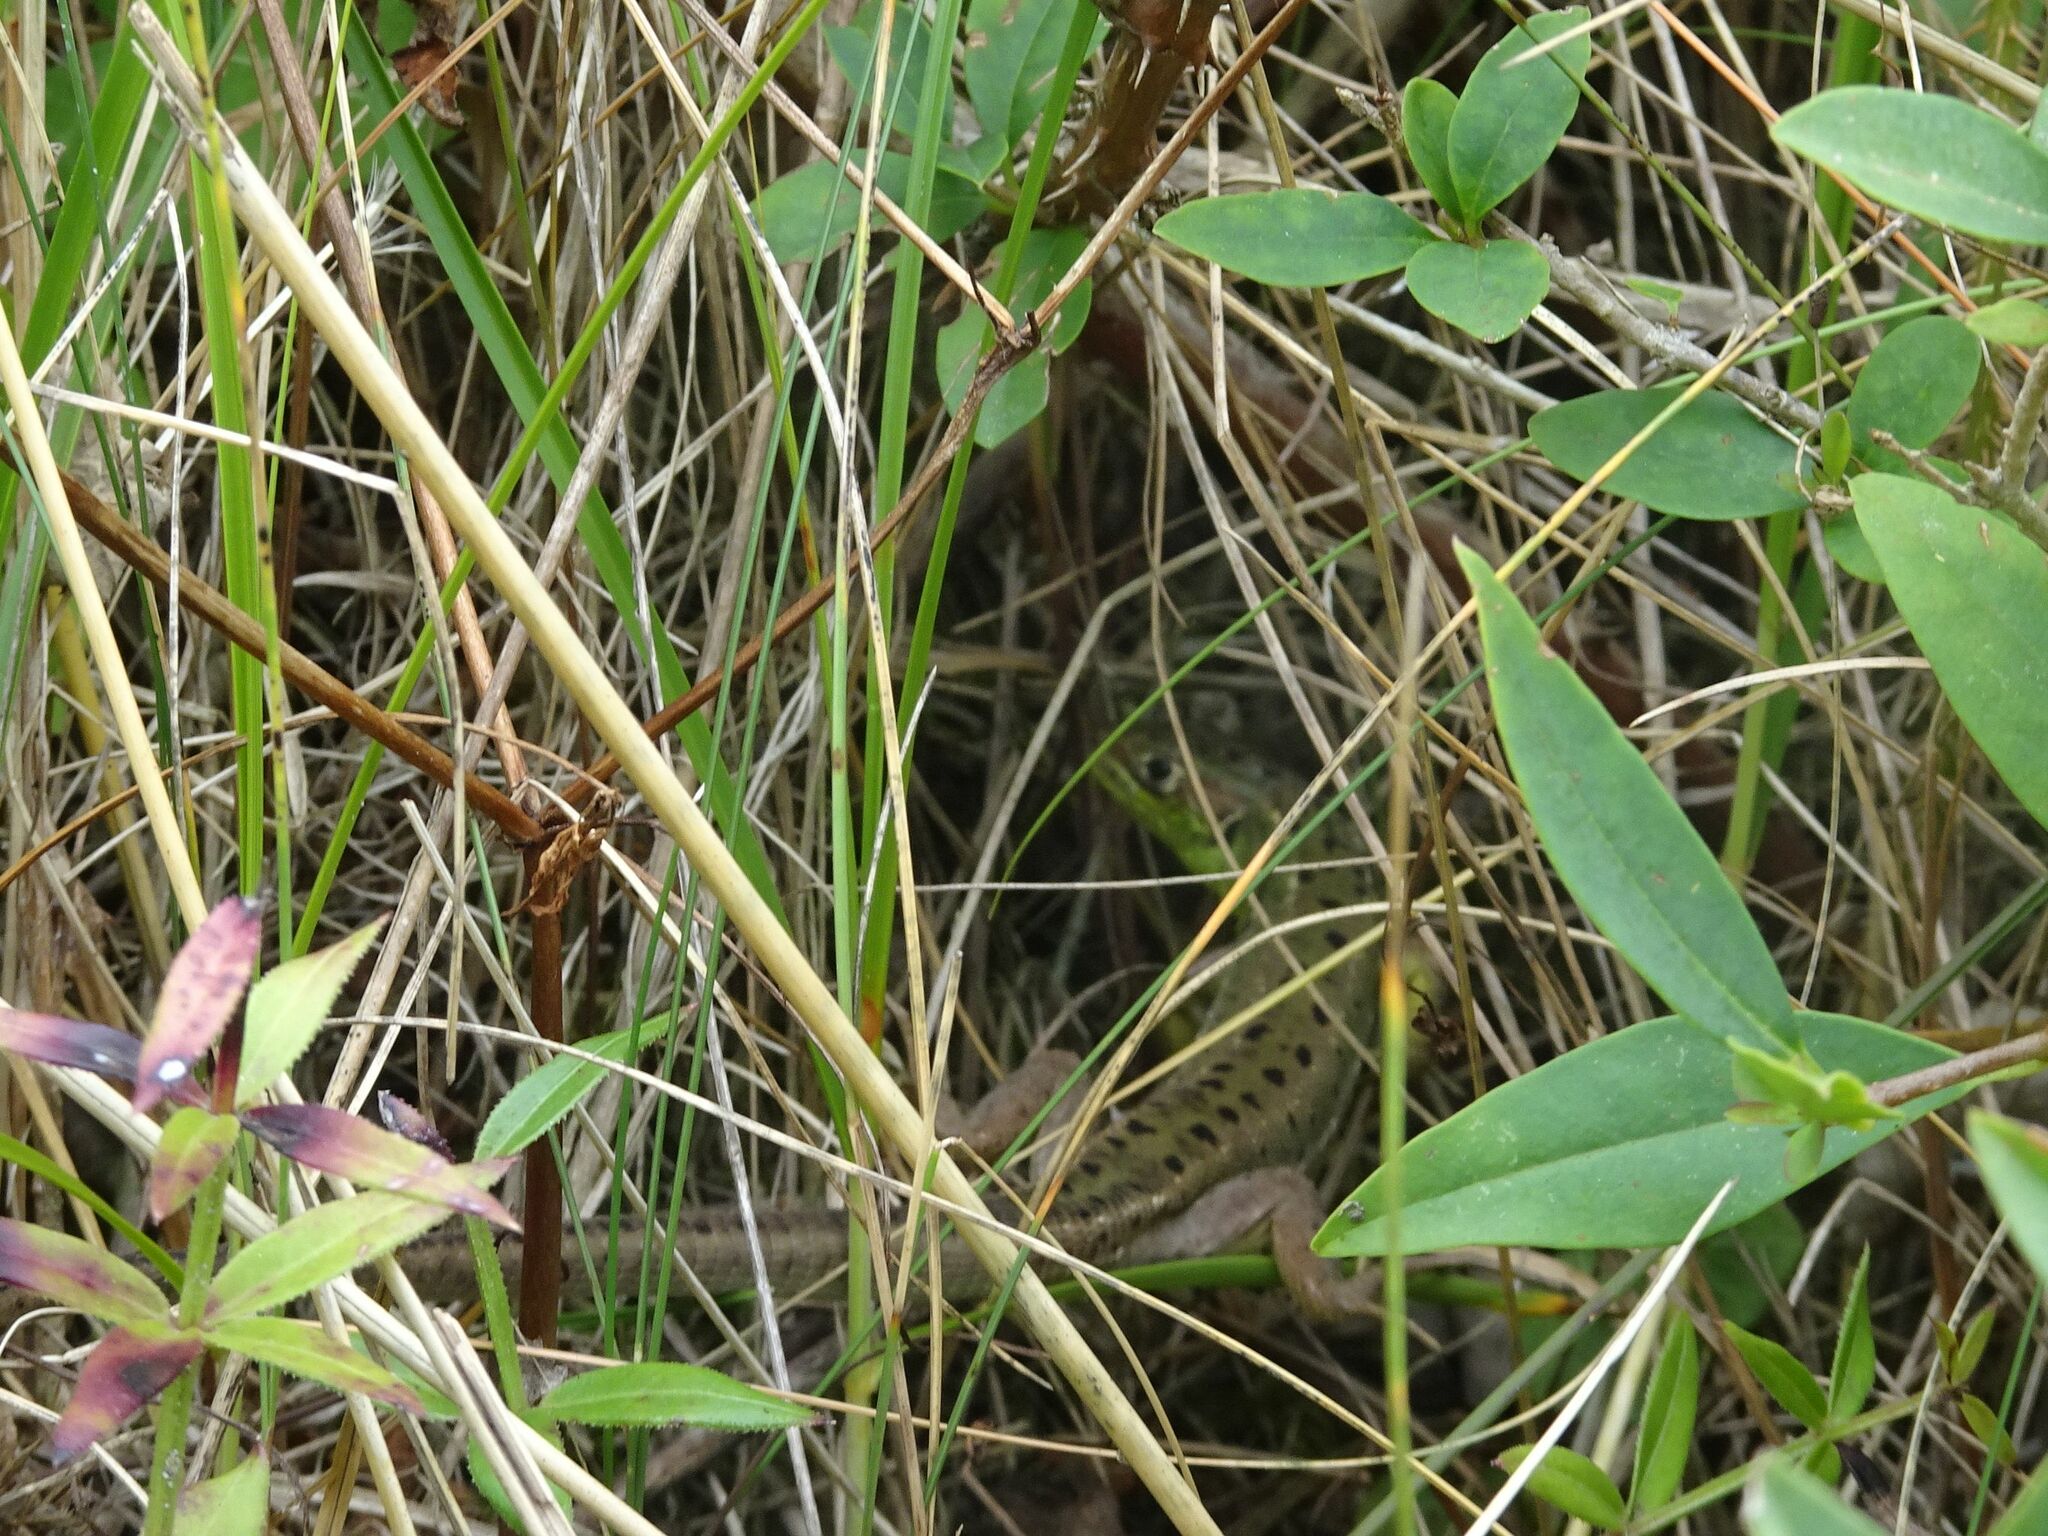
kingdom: Animalia
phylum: Chordata
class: Squamata
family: Lacertidae
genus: Lacerta
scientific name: Lacerta bilineata
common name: Western green lizard
